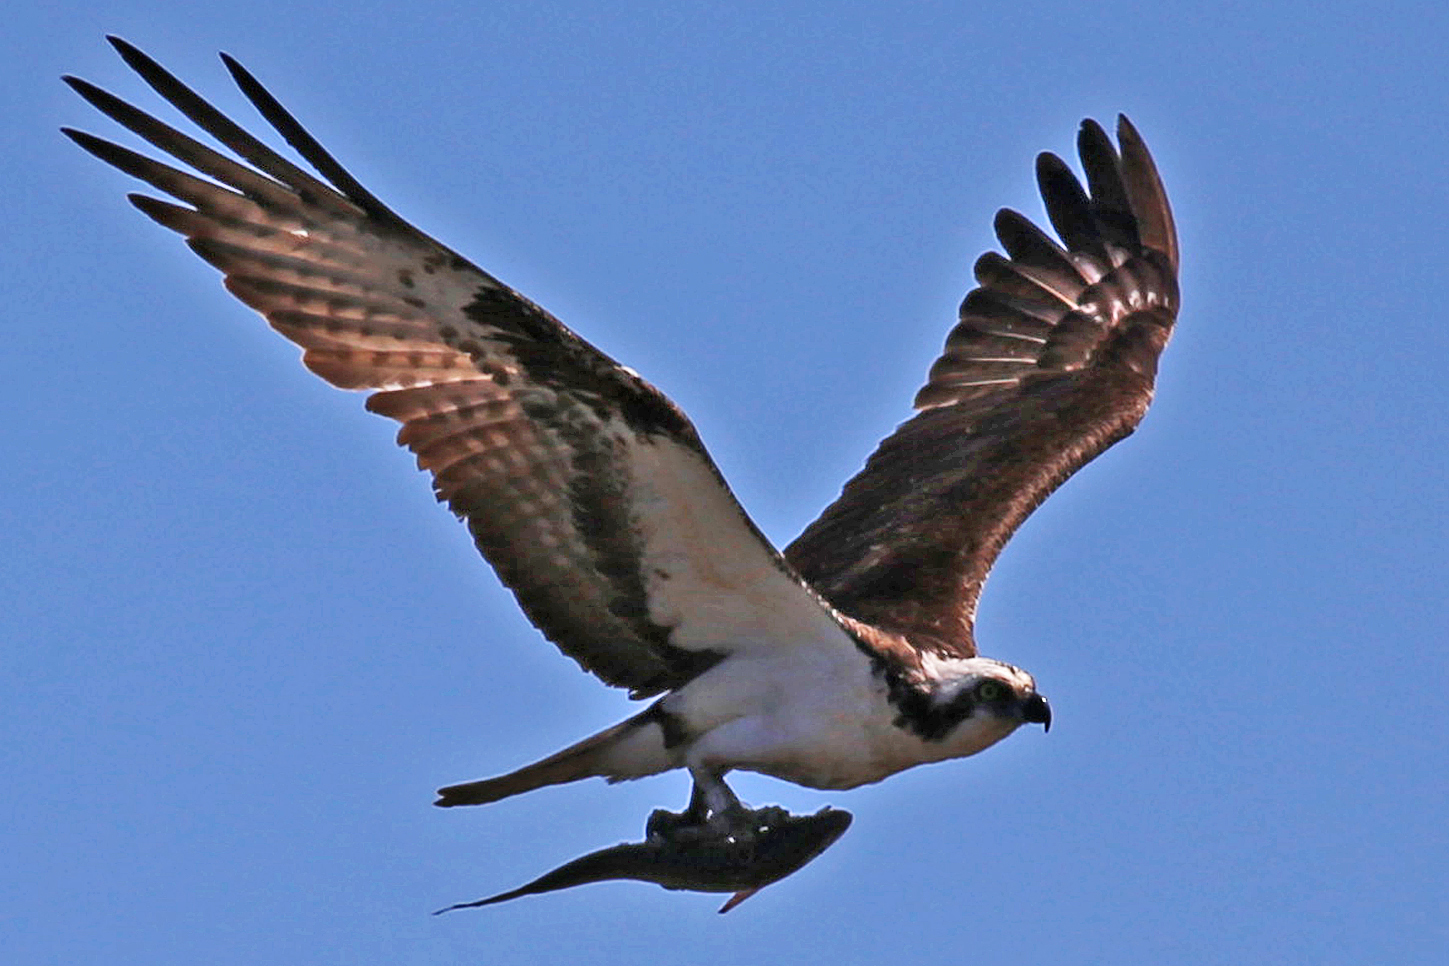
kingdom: Animalia
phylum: Chordata
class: Aves
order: Accipitriformes
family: Pandionidae
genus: Pandion
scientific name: Pandion haliaetus
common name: Osprey
